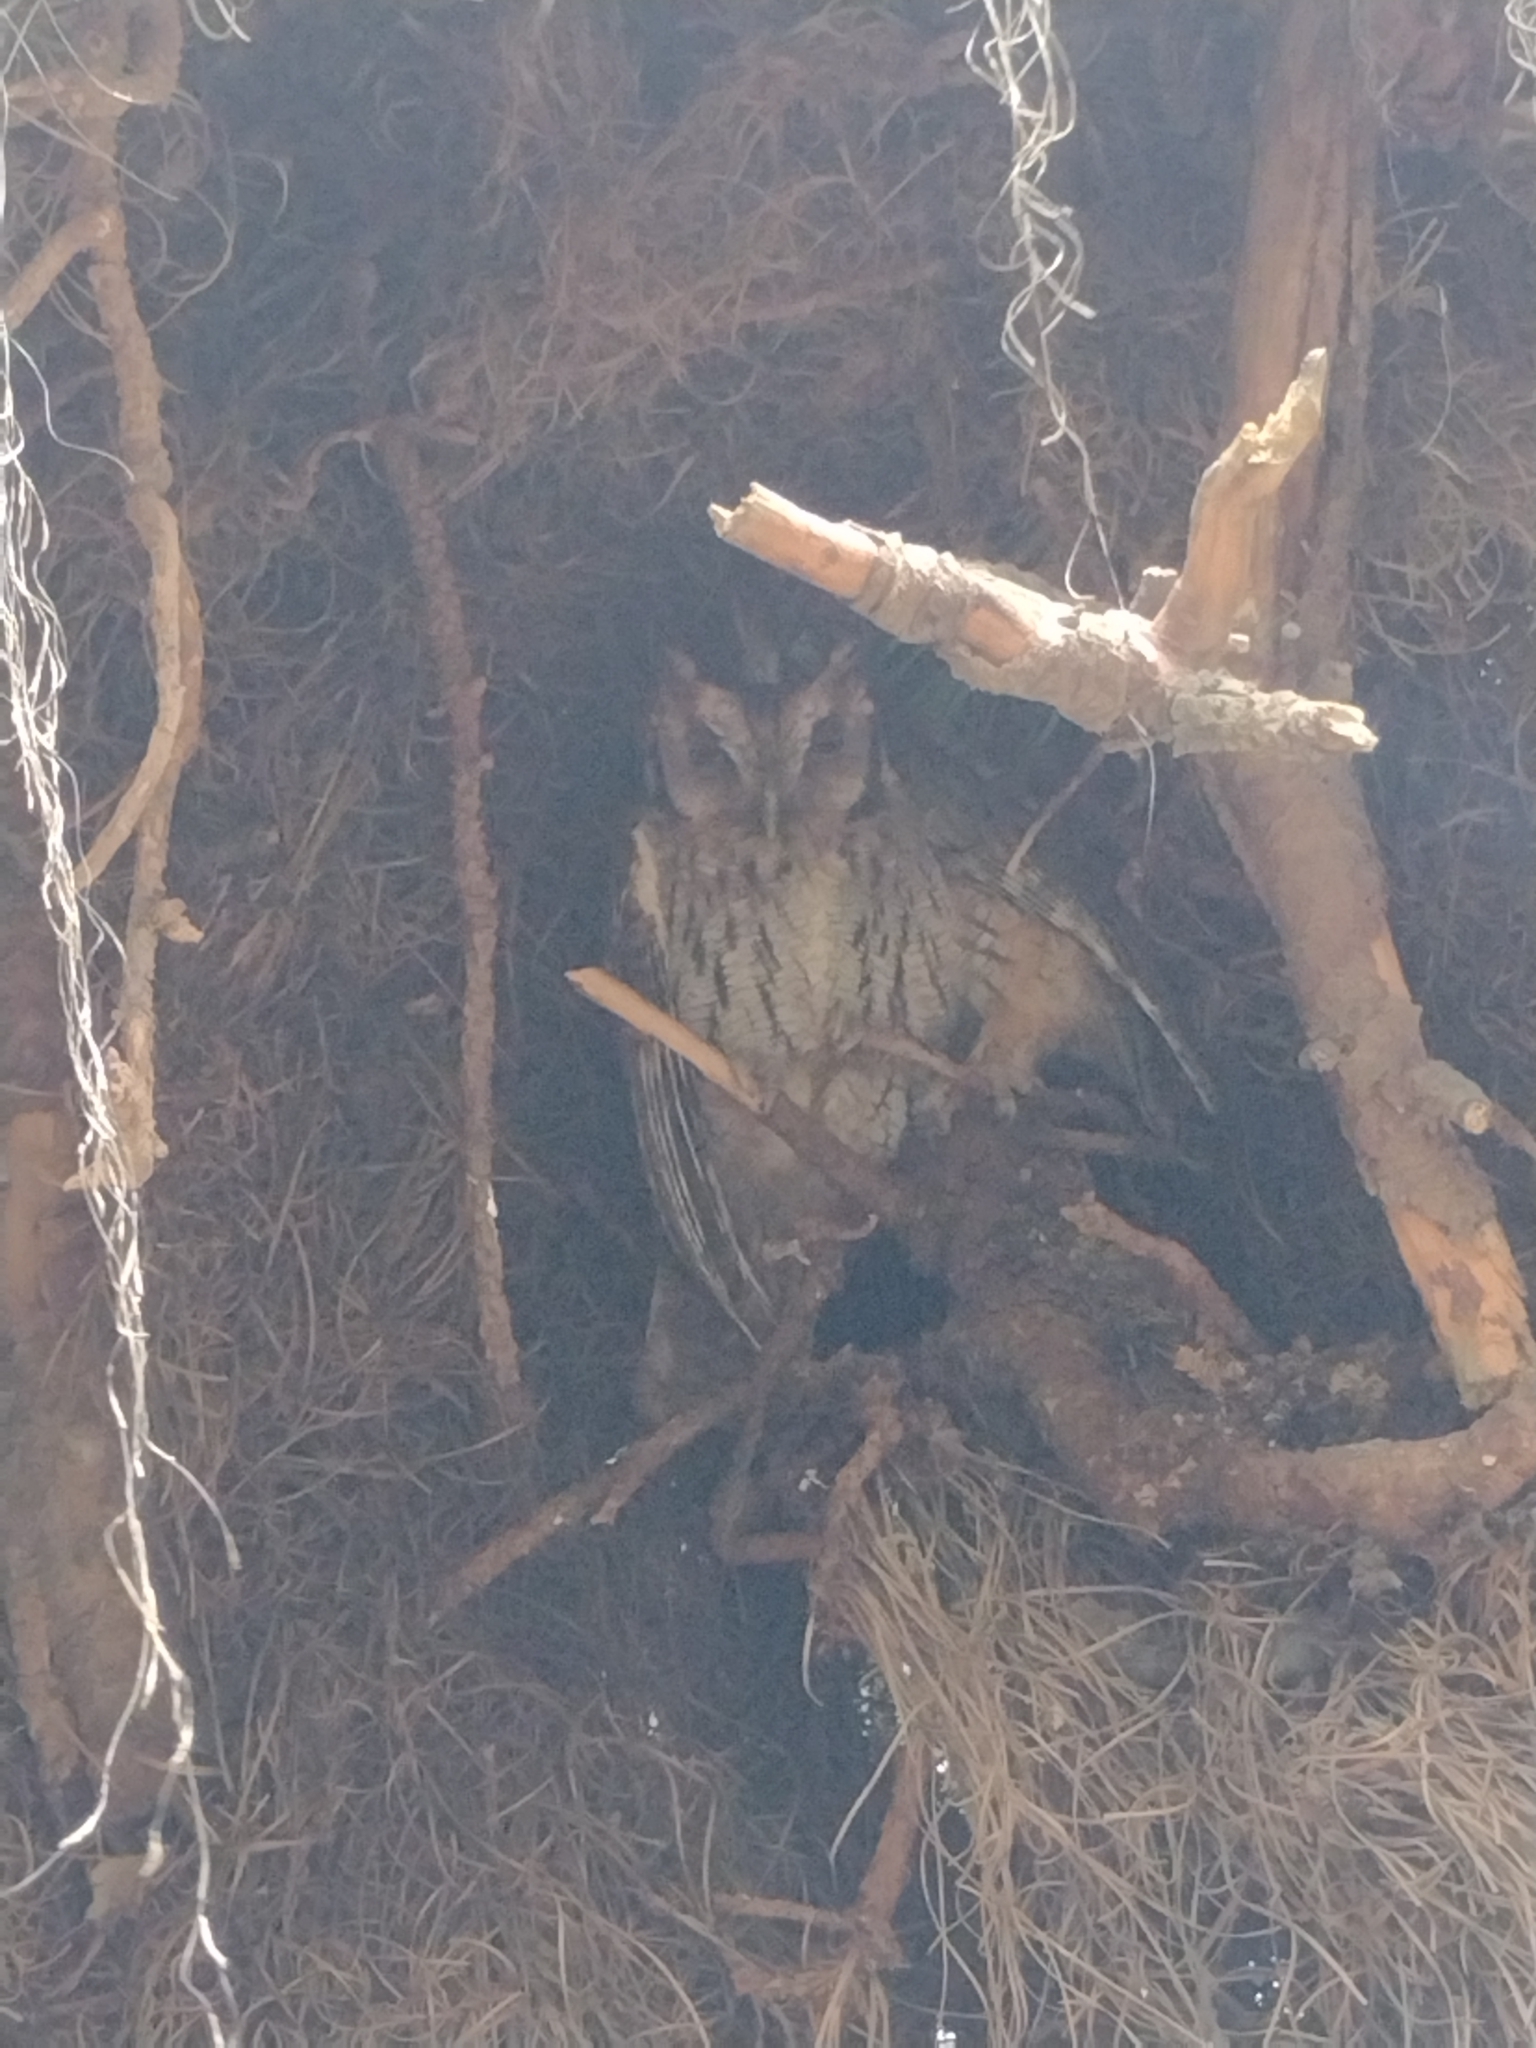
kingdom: Animalia
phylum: Chordata
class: Aves
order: Strigiformes
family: Strigidae
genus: Megascops
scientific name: Megascops choliba
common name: Tropical screech-owl
